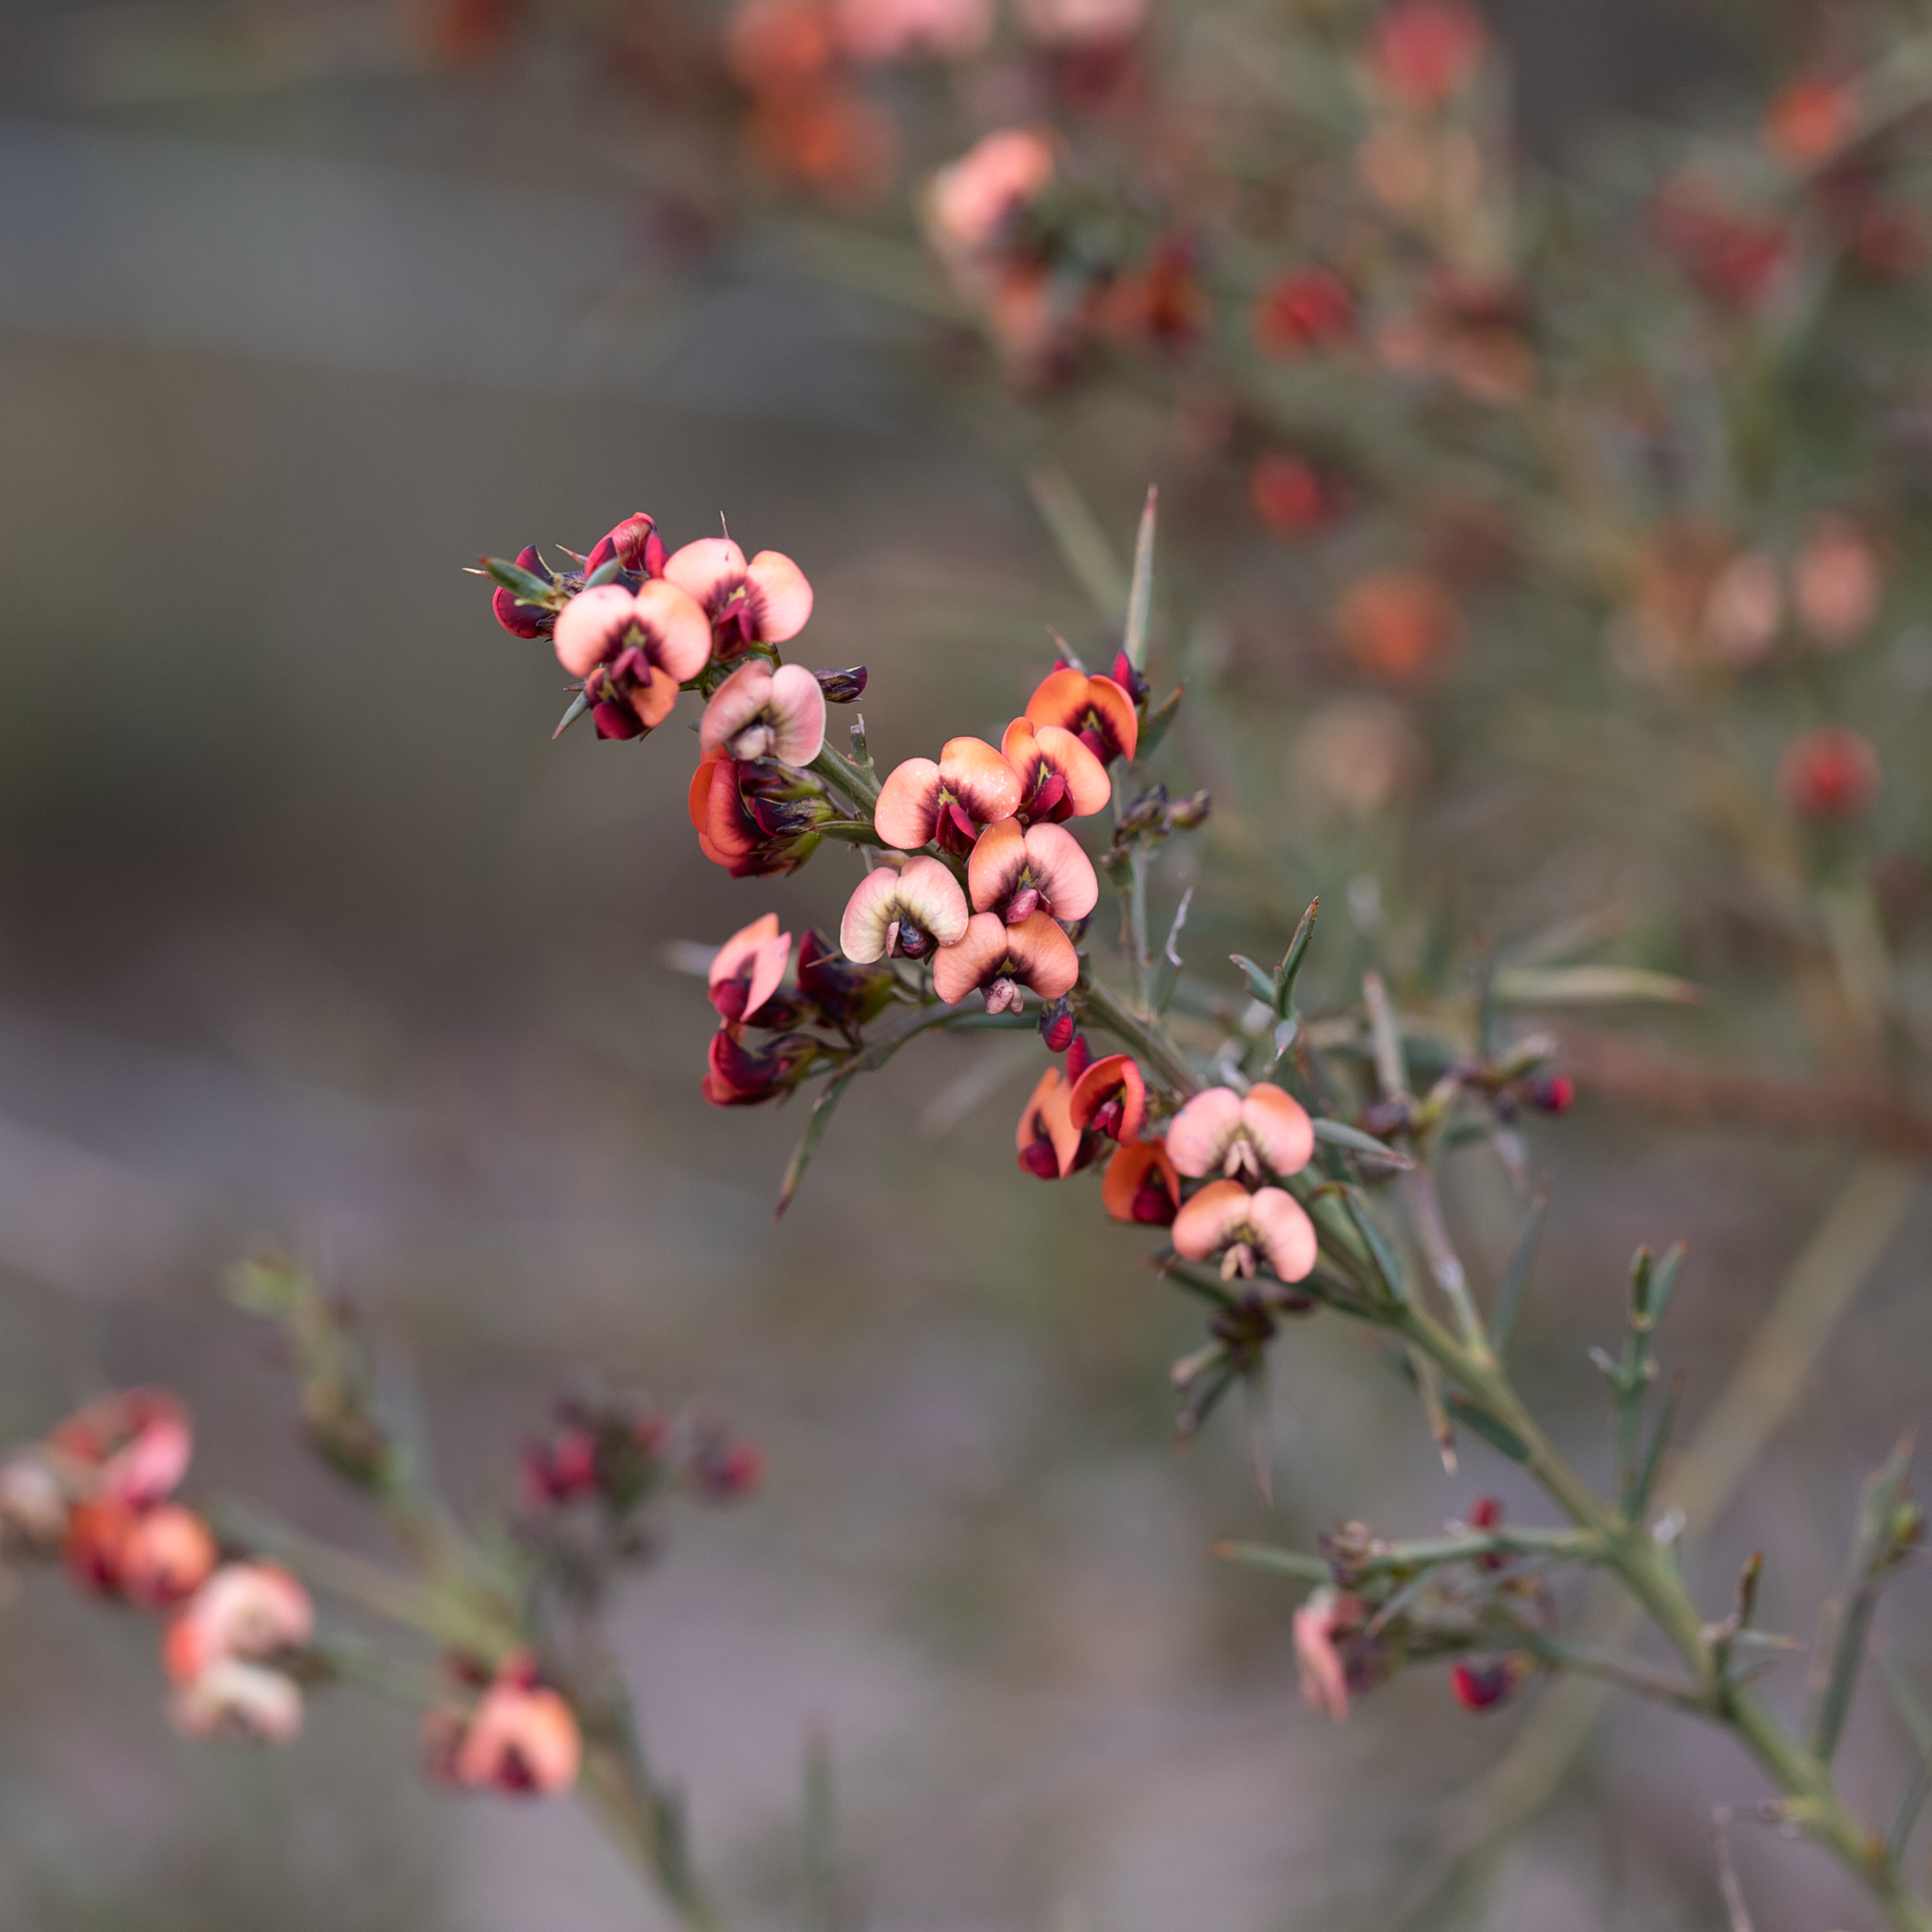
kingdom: Plantae
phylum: Tracheophyta
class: Magnoliopsida
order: Fabales
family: Fabaceae
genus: Daviesia
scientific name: Daviesia ulicifolia
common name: Gorse bitter-pea
